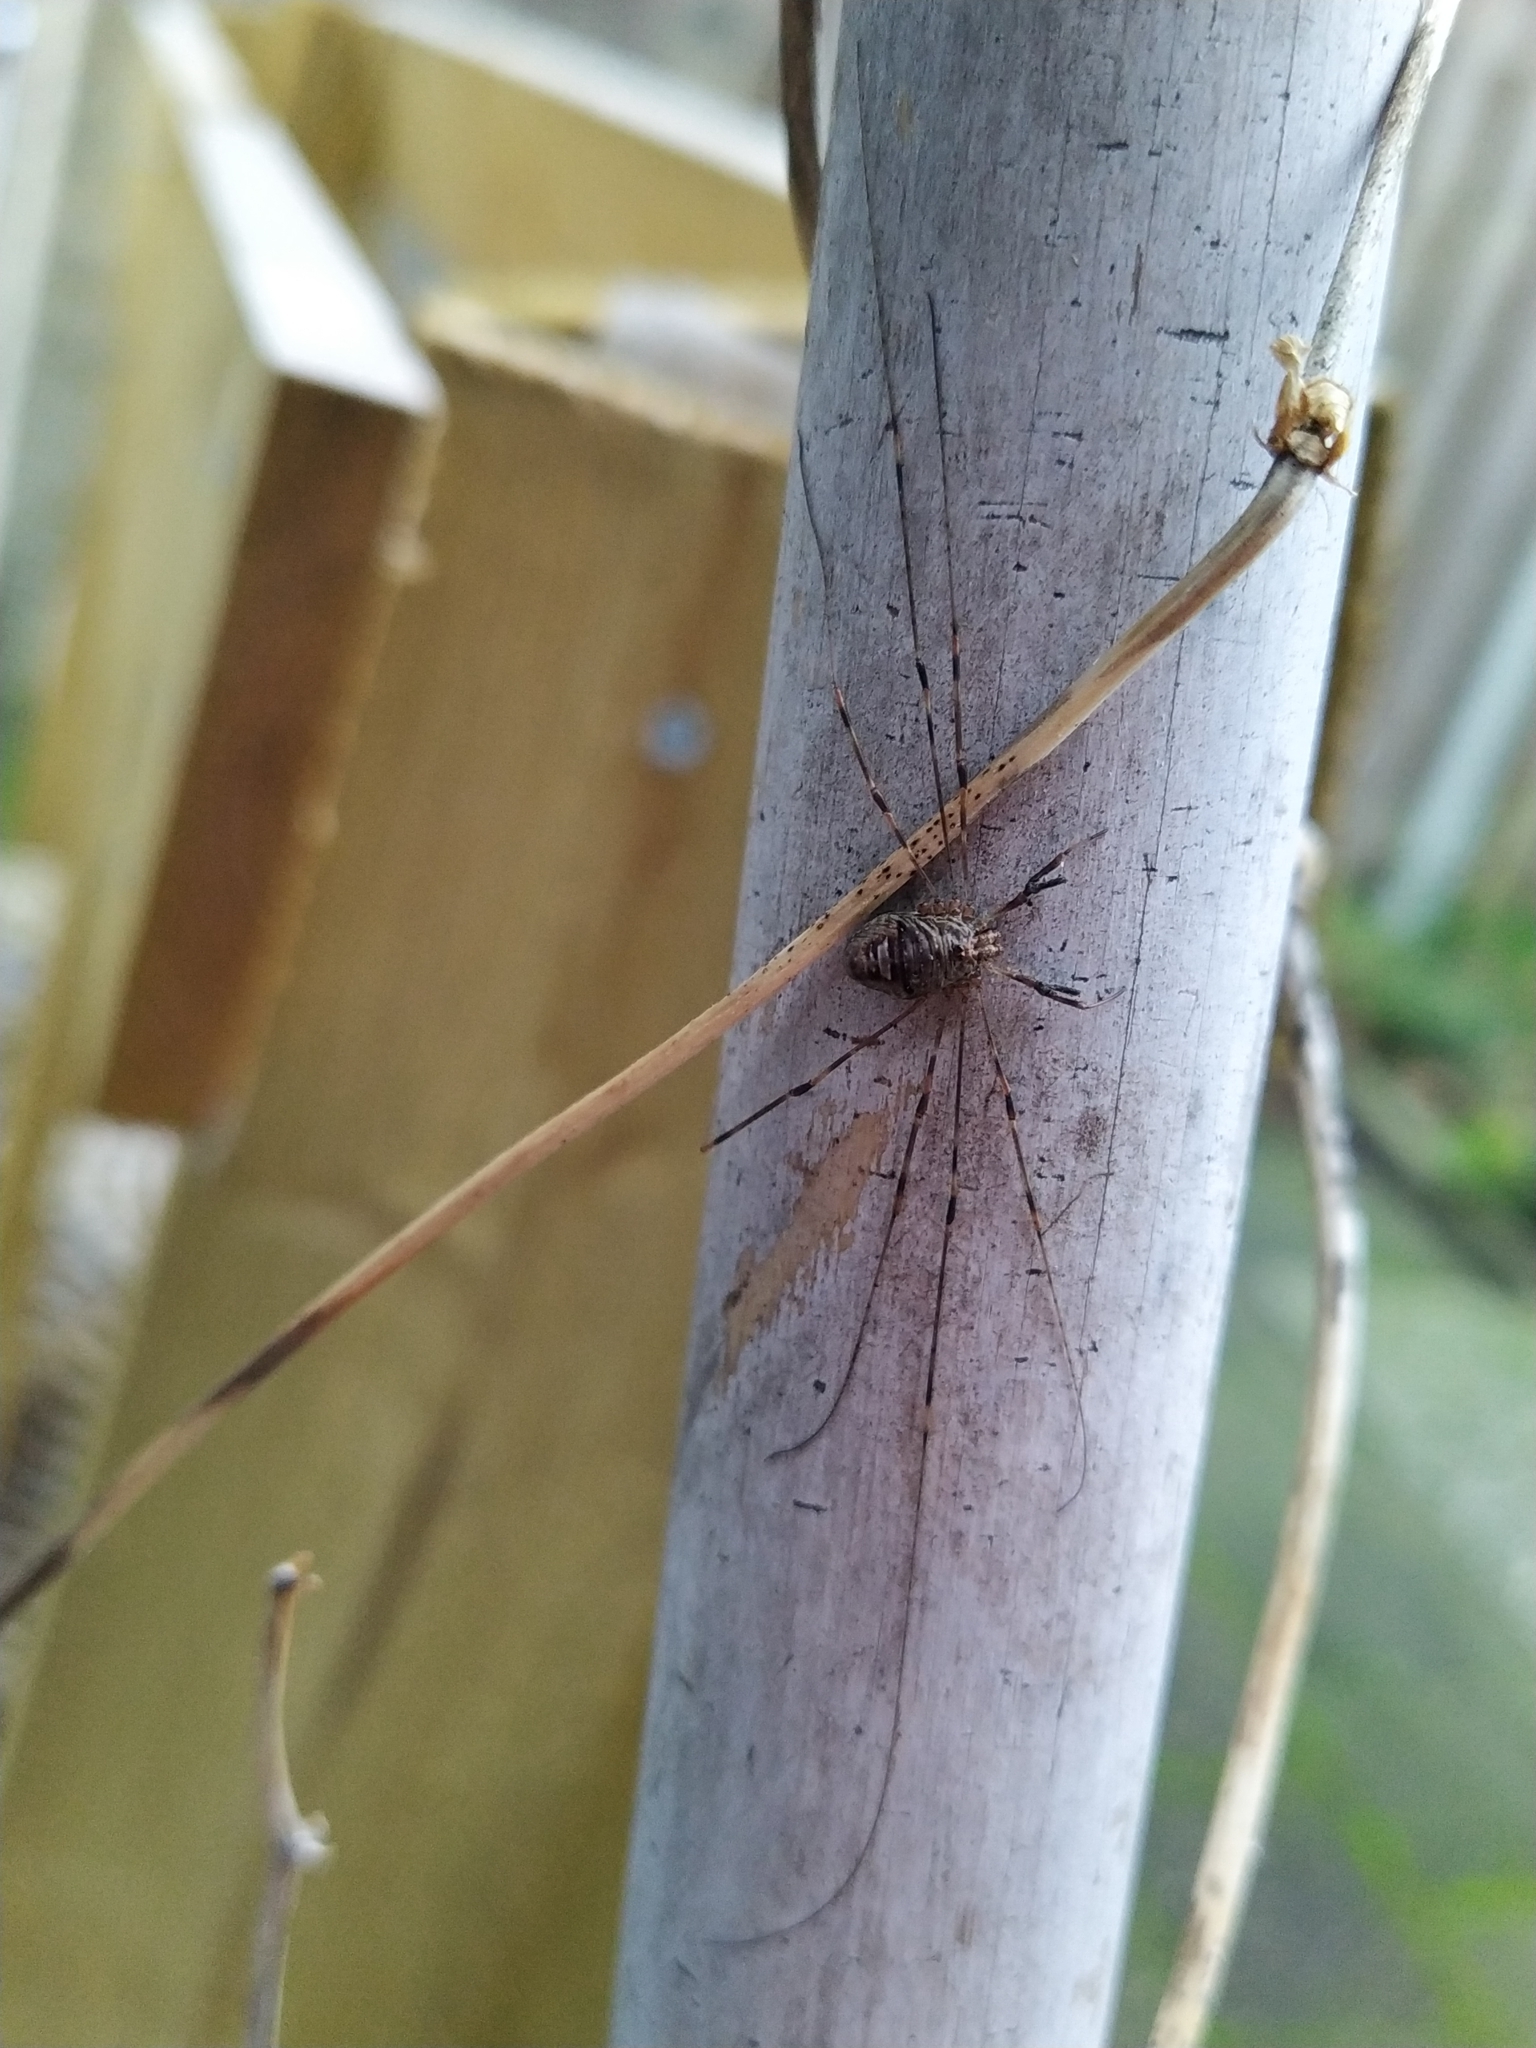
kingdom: Animalia
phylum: Arthropoda
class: Arachnida
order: Opiliones
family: Phalangiidae
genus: Dicranopalpus
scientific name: Dicranopalpus ramosus
